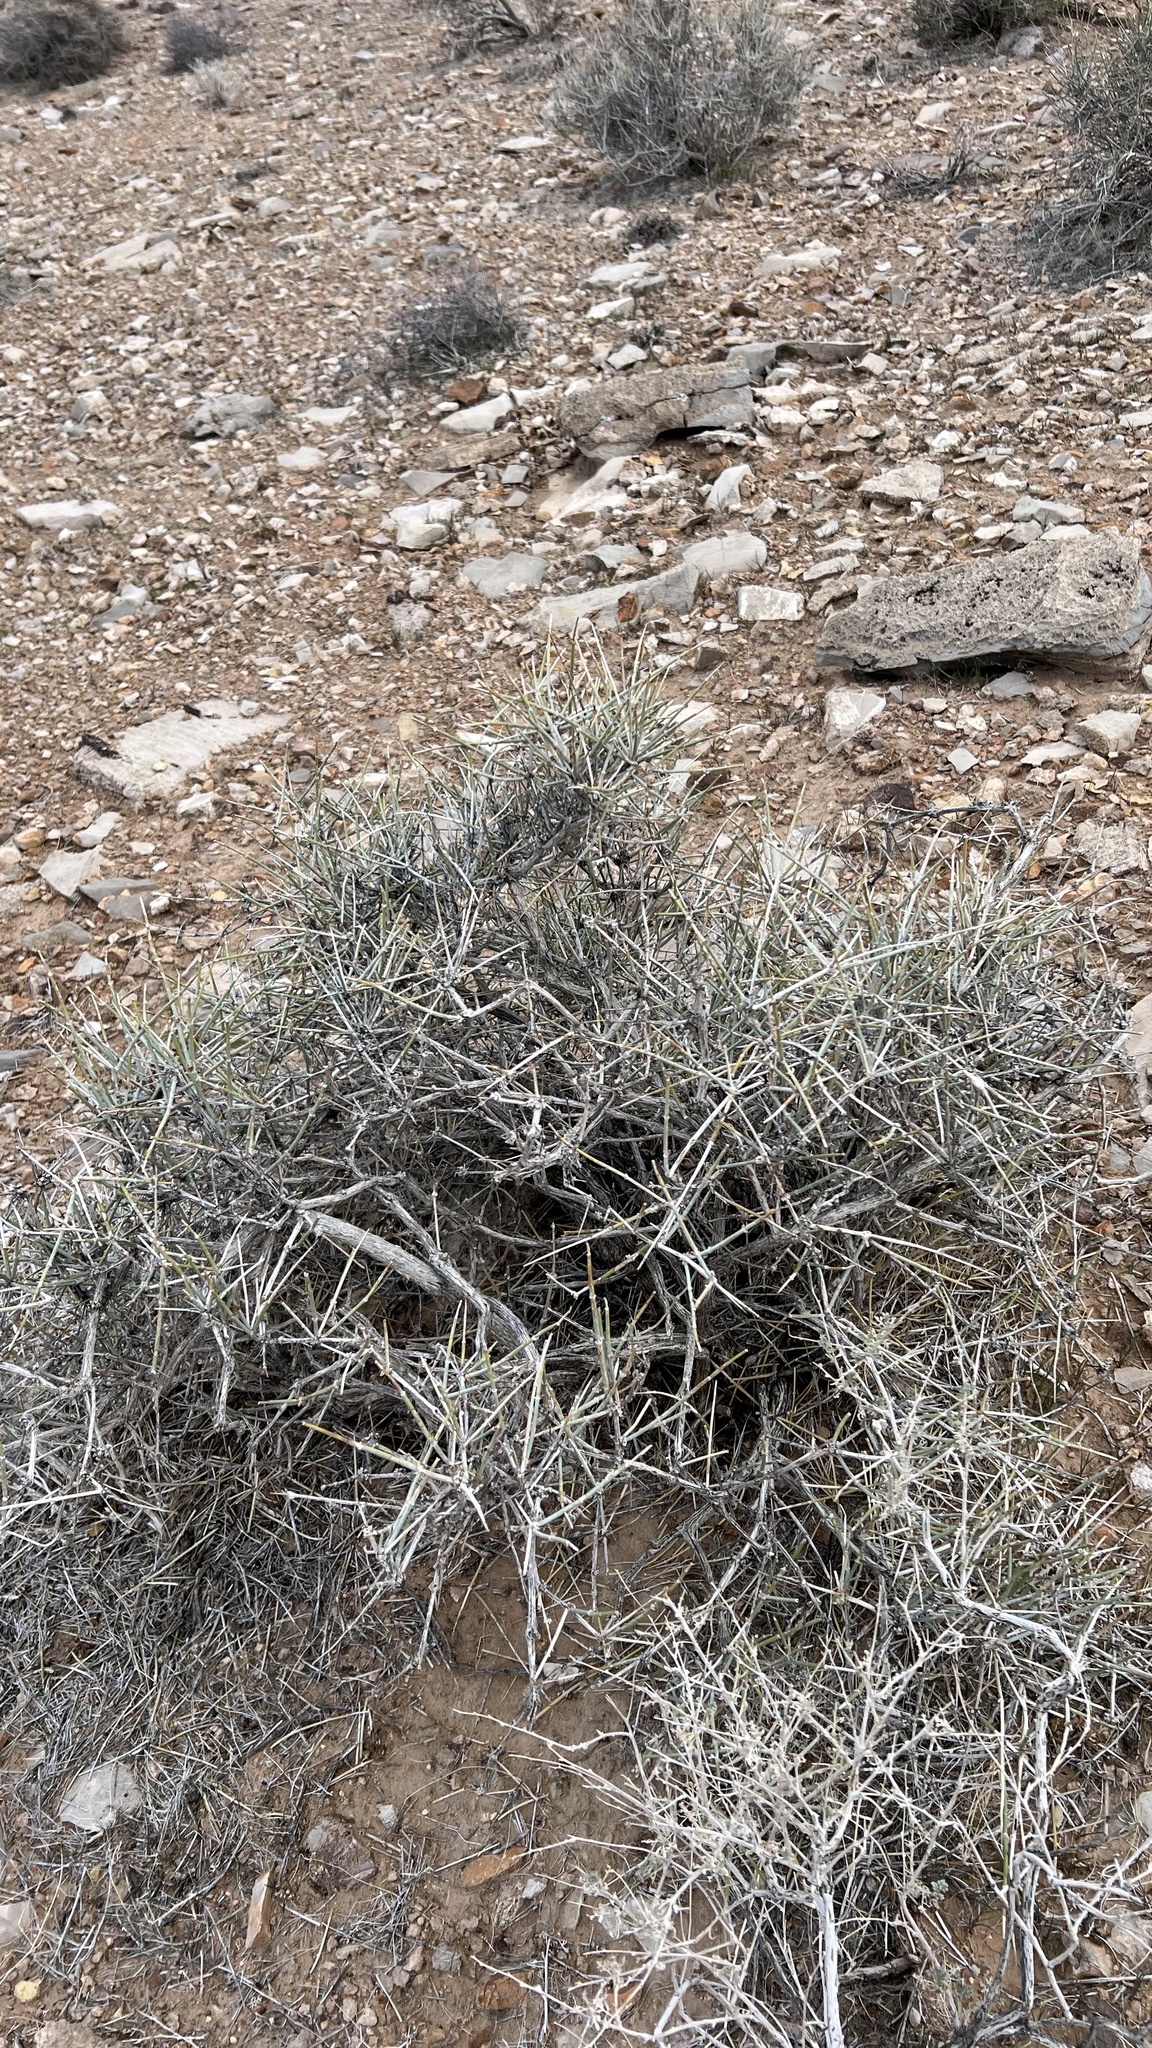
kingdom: Plantae
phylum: Tracheophyta
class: Gnetopsida
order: Ephedrales
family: Ephedraceae
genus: Ephedra
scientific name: Ephedra nevadensis
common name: Gray ephedra
